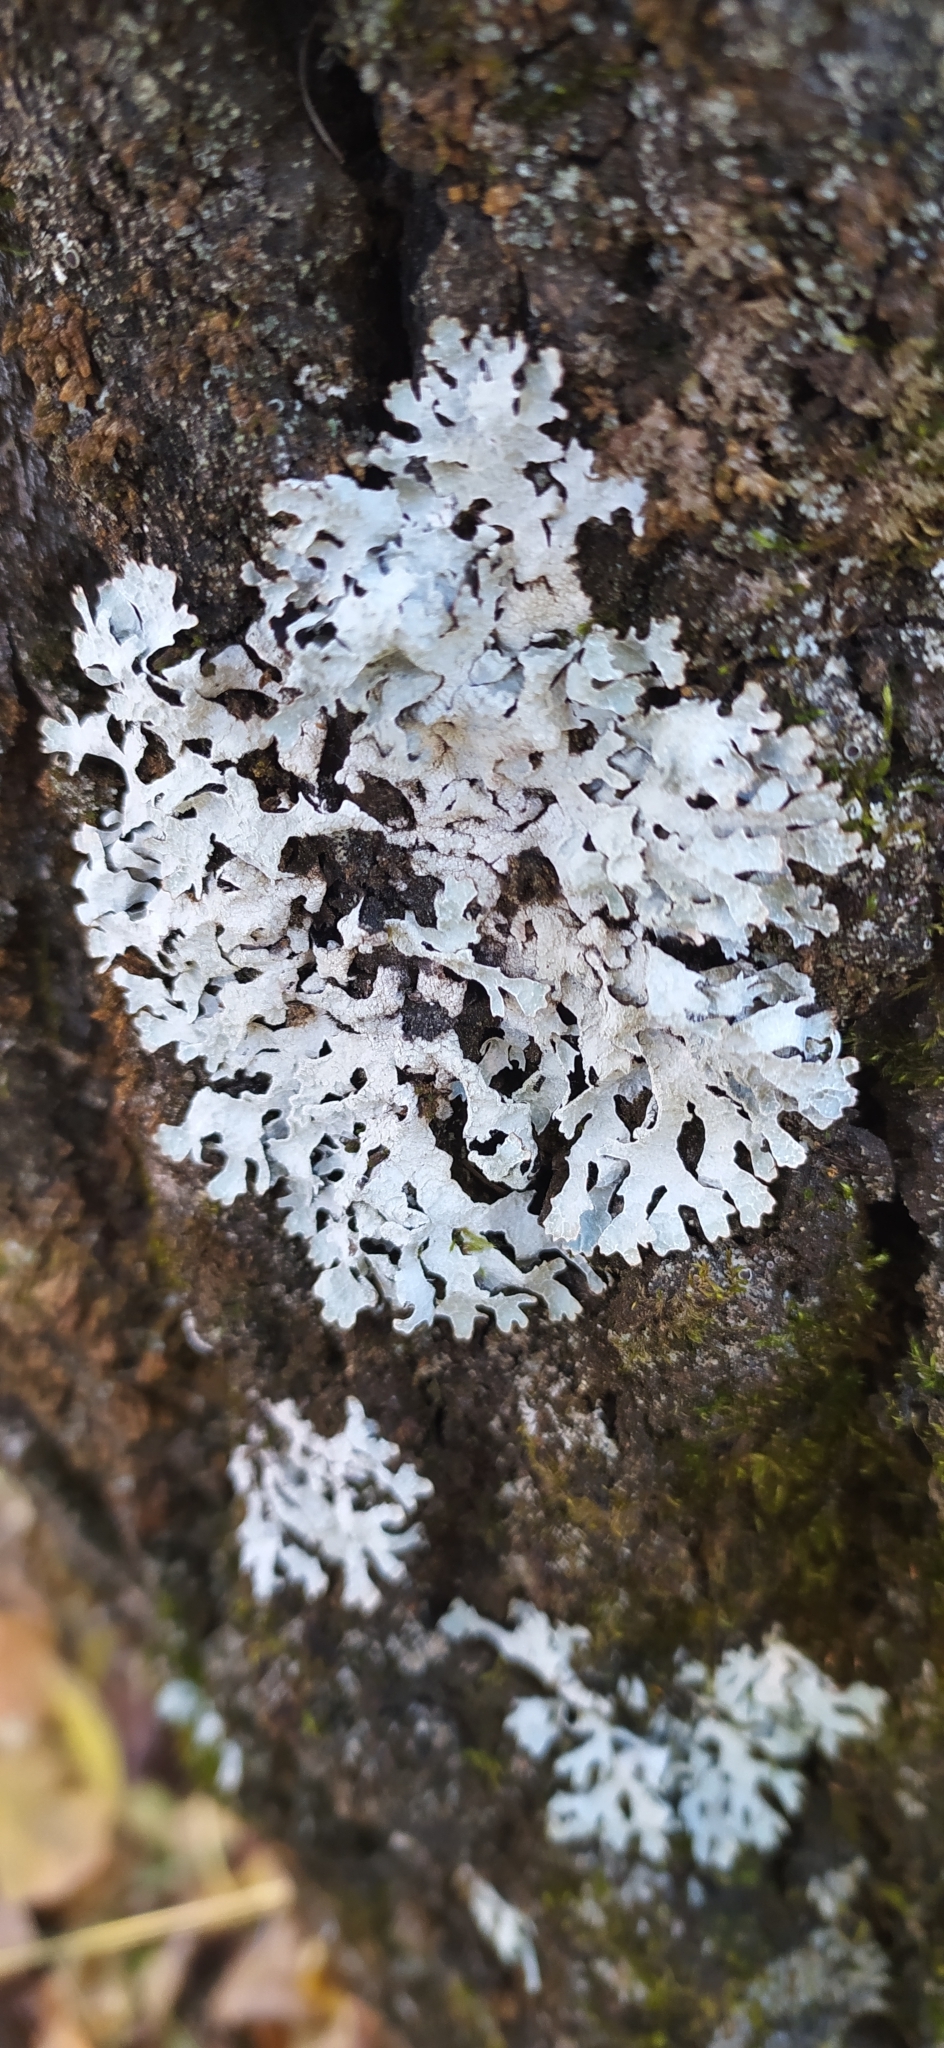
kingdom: Fungi
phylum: Ascomycota
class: Lecanoromycetes
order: Lecanorales
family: Parmeliaceae
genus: Parmelia
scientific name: Parmelia sulcata
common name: Netted shield lichen
